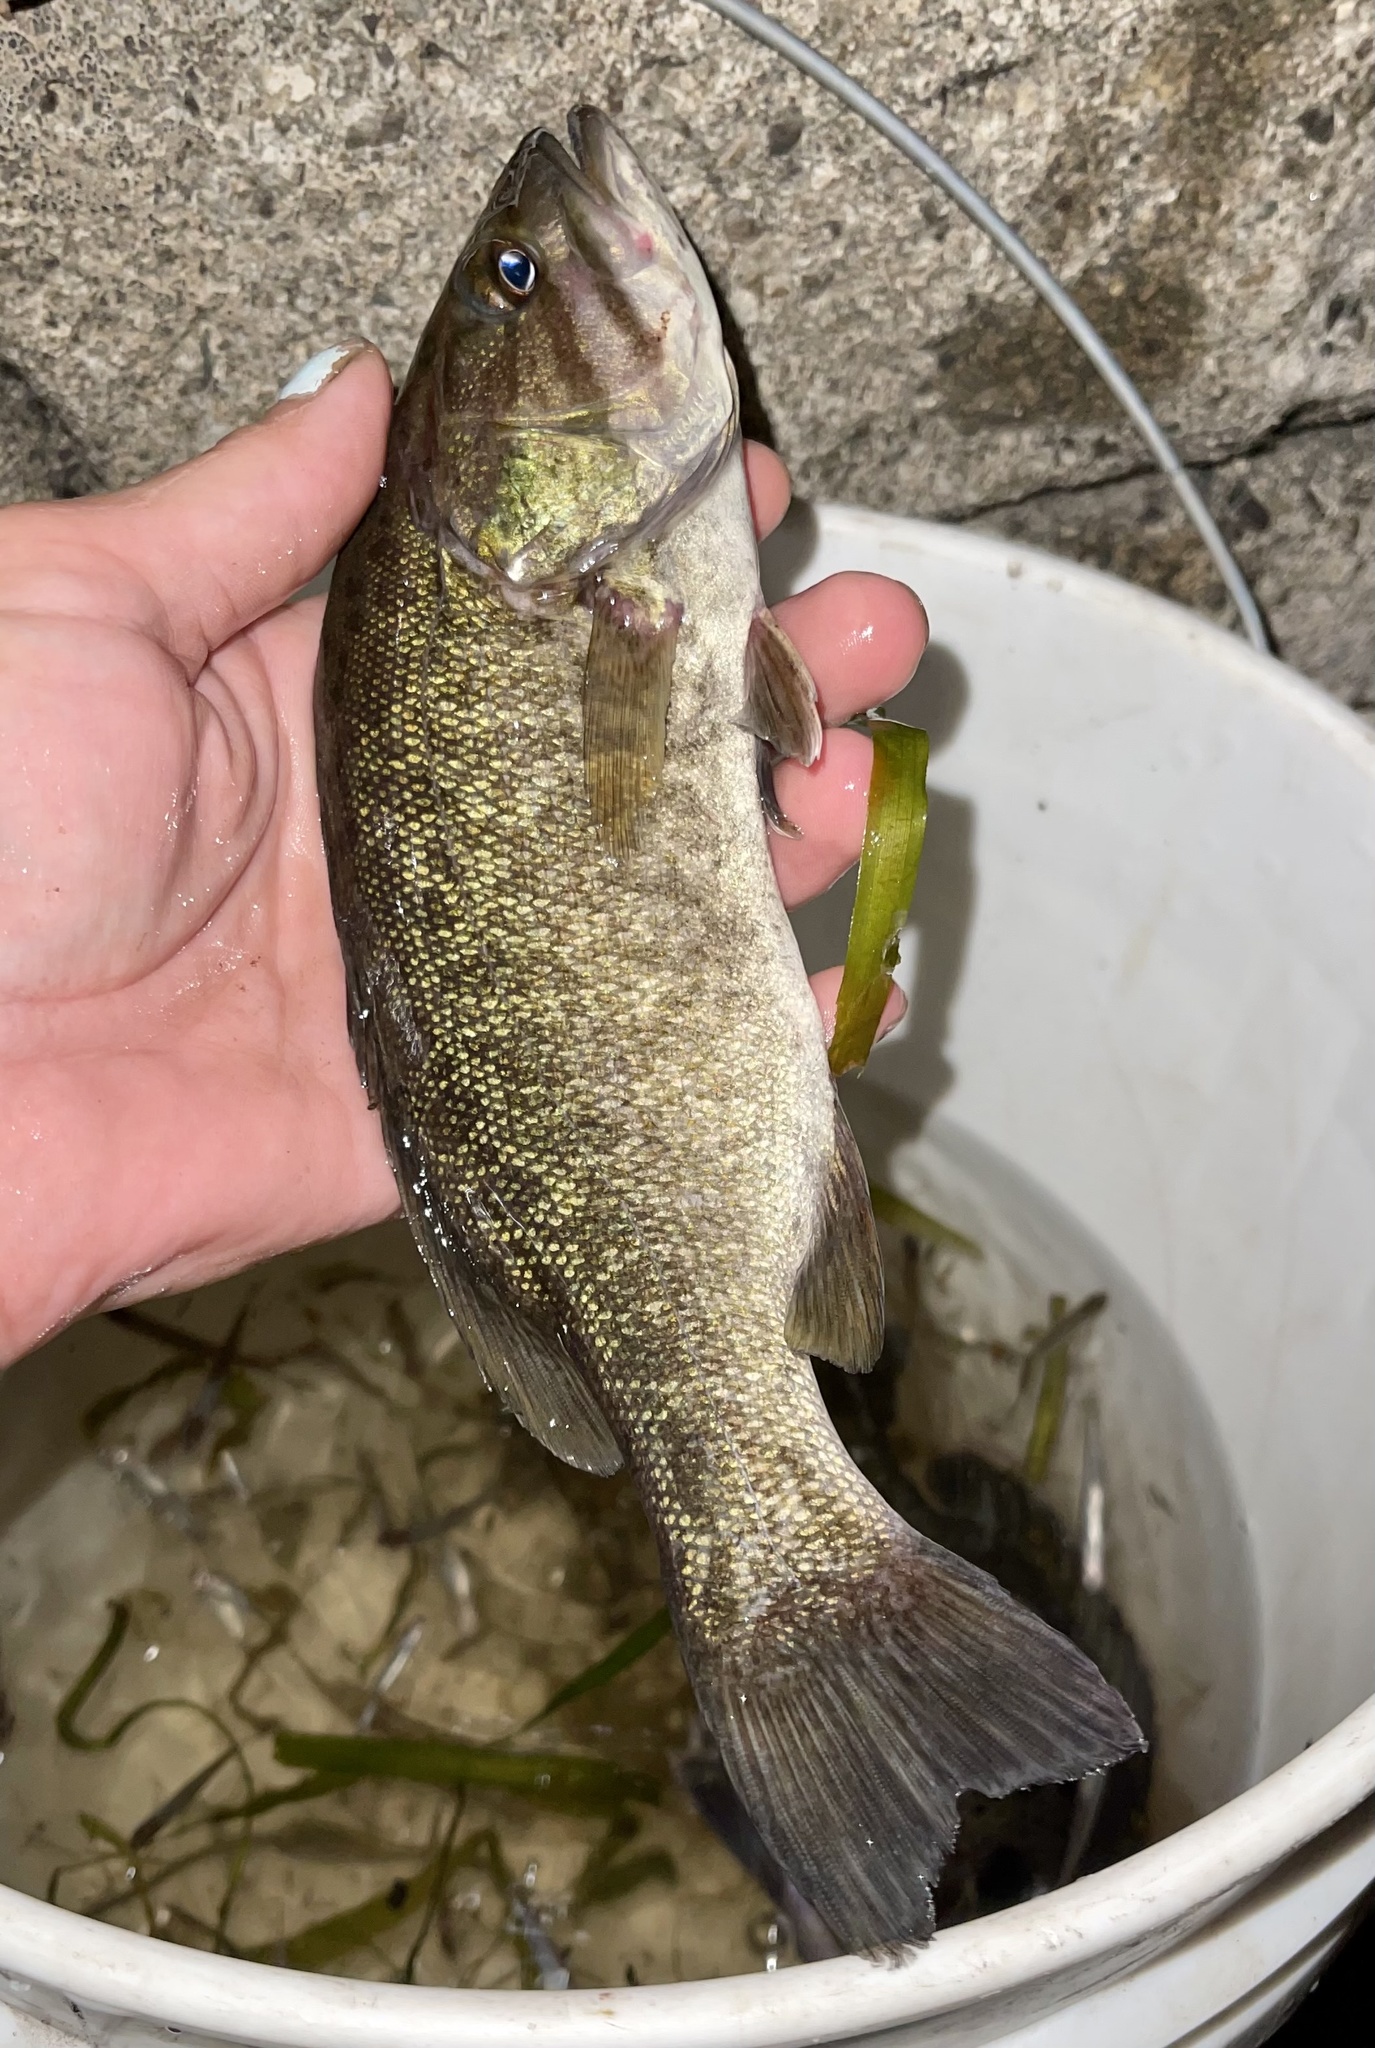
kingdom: Animalia
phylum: Chordata
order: Perciformes
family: Centrarchidae
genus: Micropterus
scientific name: Micropterus dolomieu
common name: Smallmouth bass
